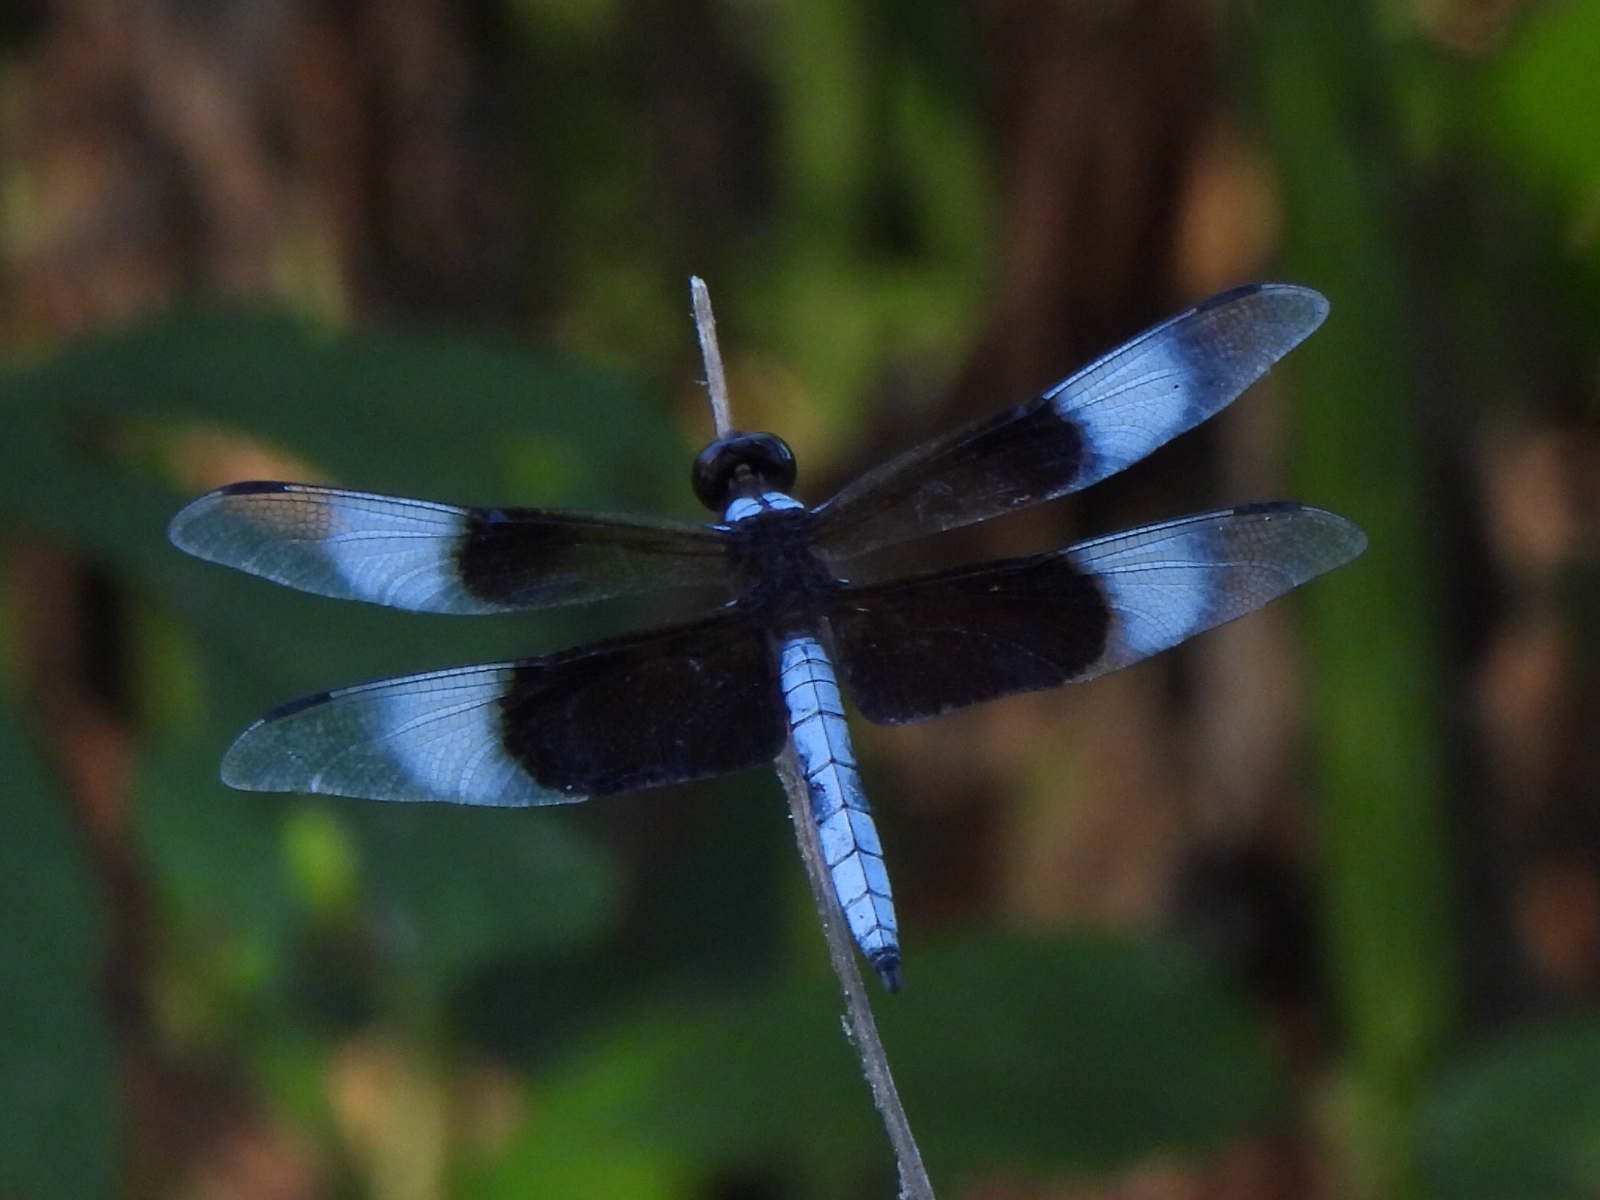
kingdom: Animalia
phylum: Arthropoda
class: Insecta
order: Odonata
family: Libellulidae
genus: Libellula
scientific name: Libellula luctuosa
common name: Widow skimmer
